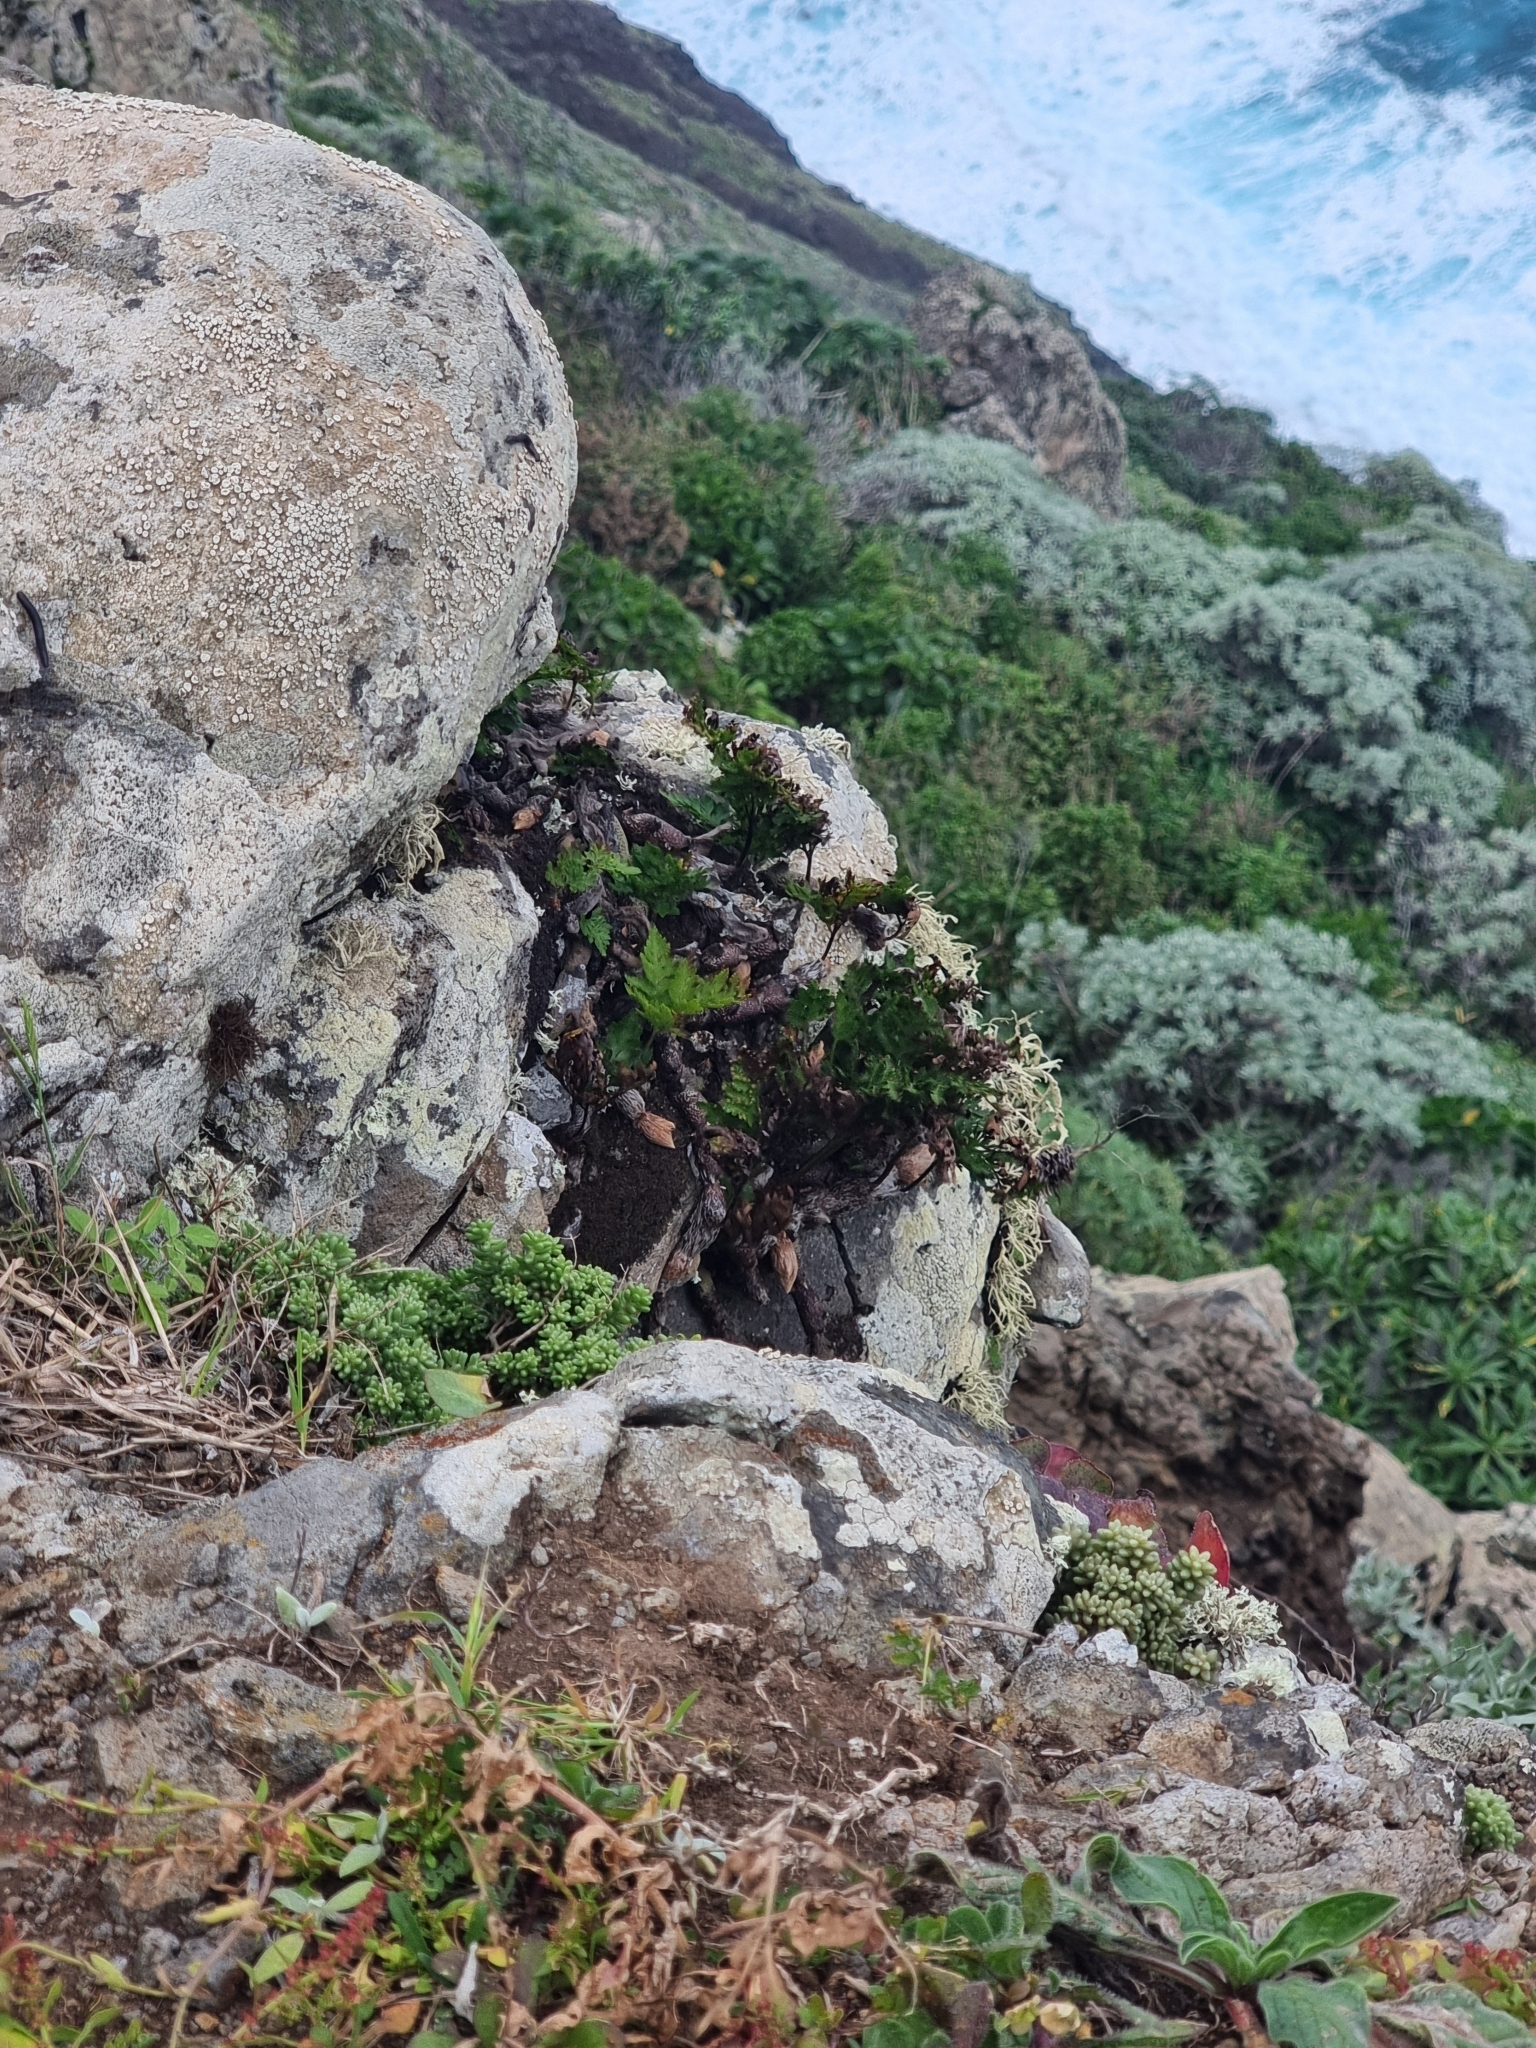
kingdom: Plantae
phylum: Tracheophyta
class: Polypodiopsida
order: Polypodiales
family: Davalliaceae
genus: Davallia
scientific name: Davallia canariensis
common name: Hare's-foot fern
